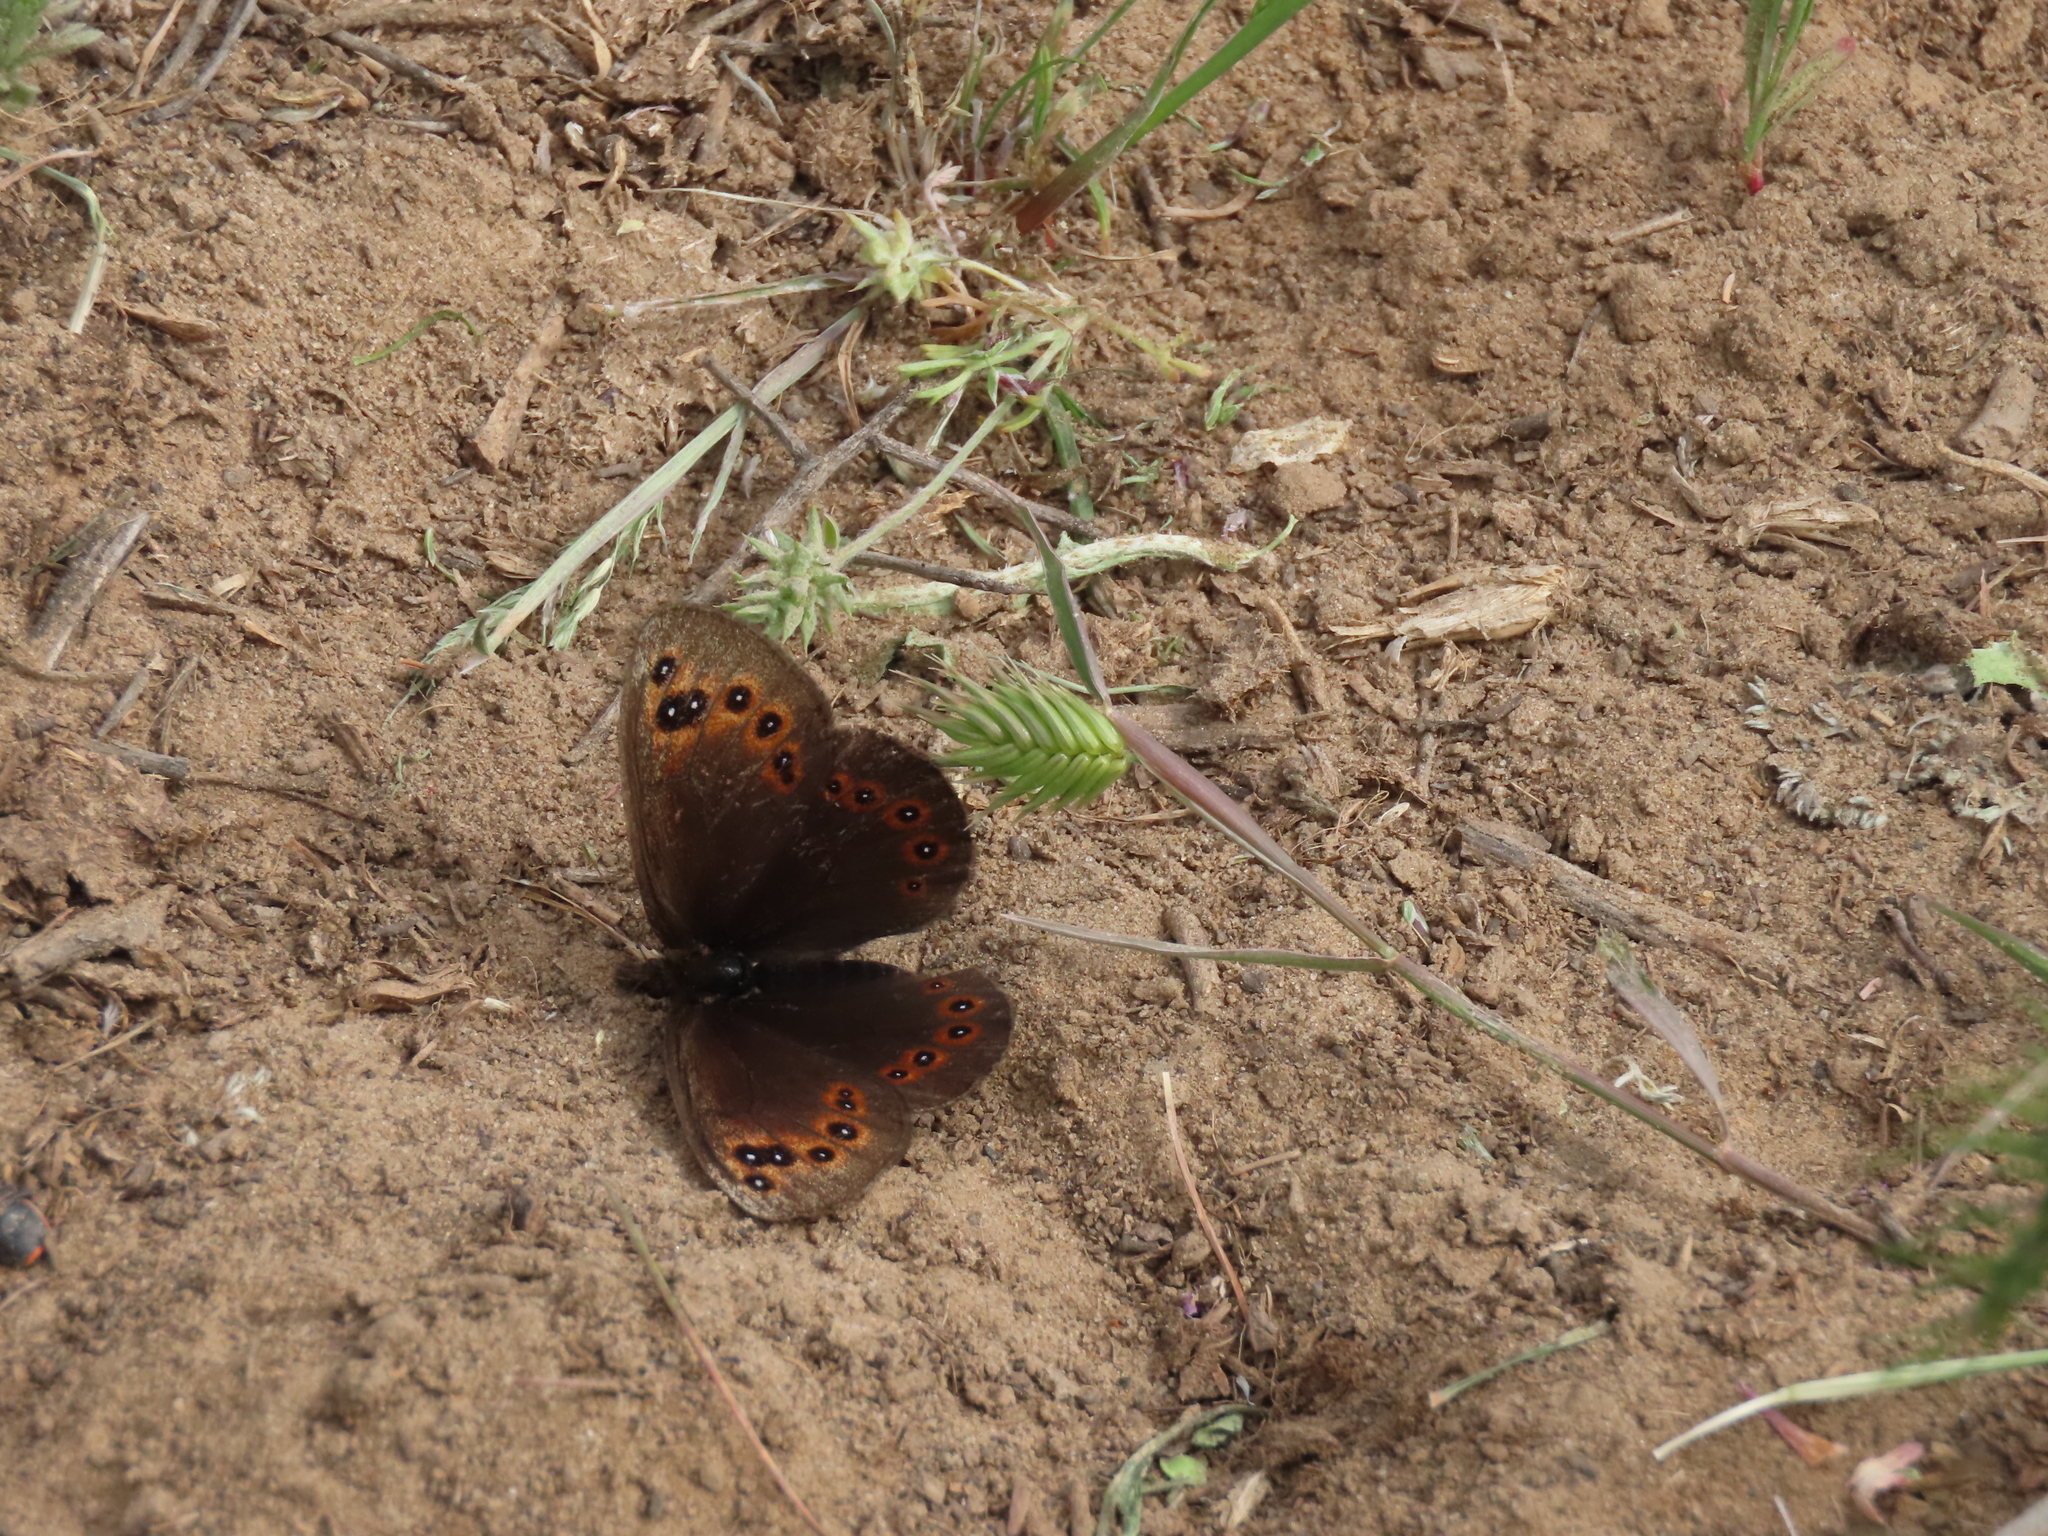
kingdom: Animalia
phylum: Arthropoda
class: Insecta
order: Lepidoptera
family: Nymphalidae
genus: Proterebia
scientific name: Proterebia afra
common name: Dalmatian ringlet
